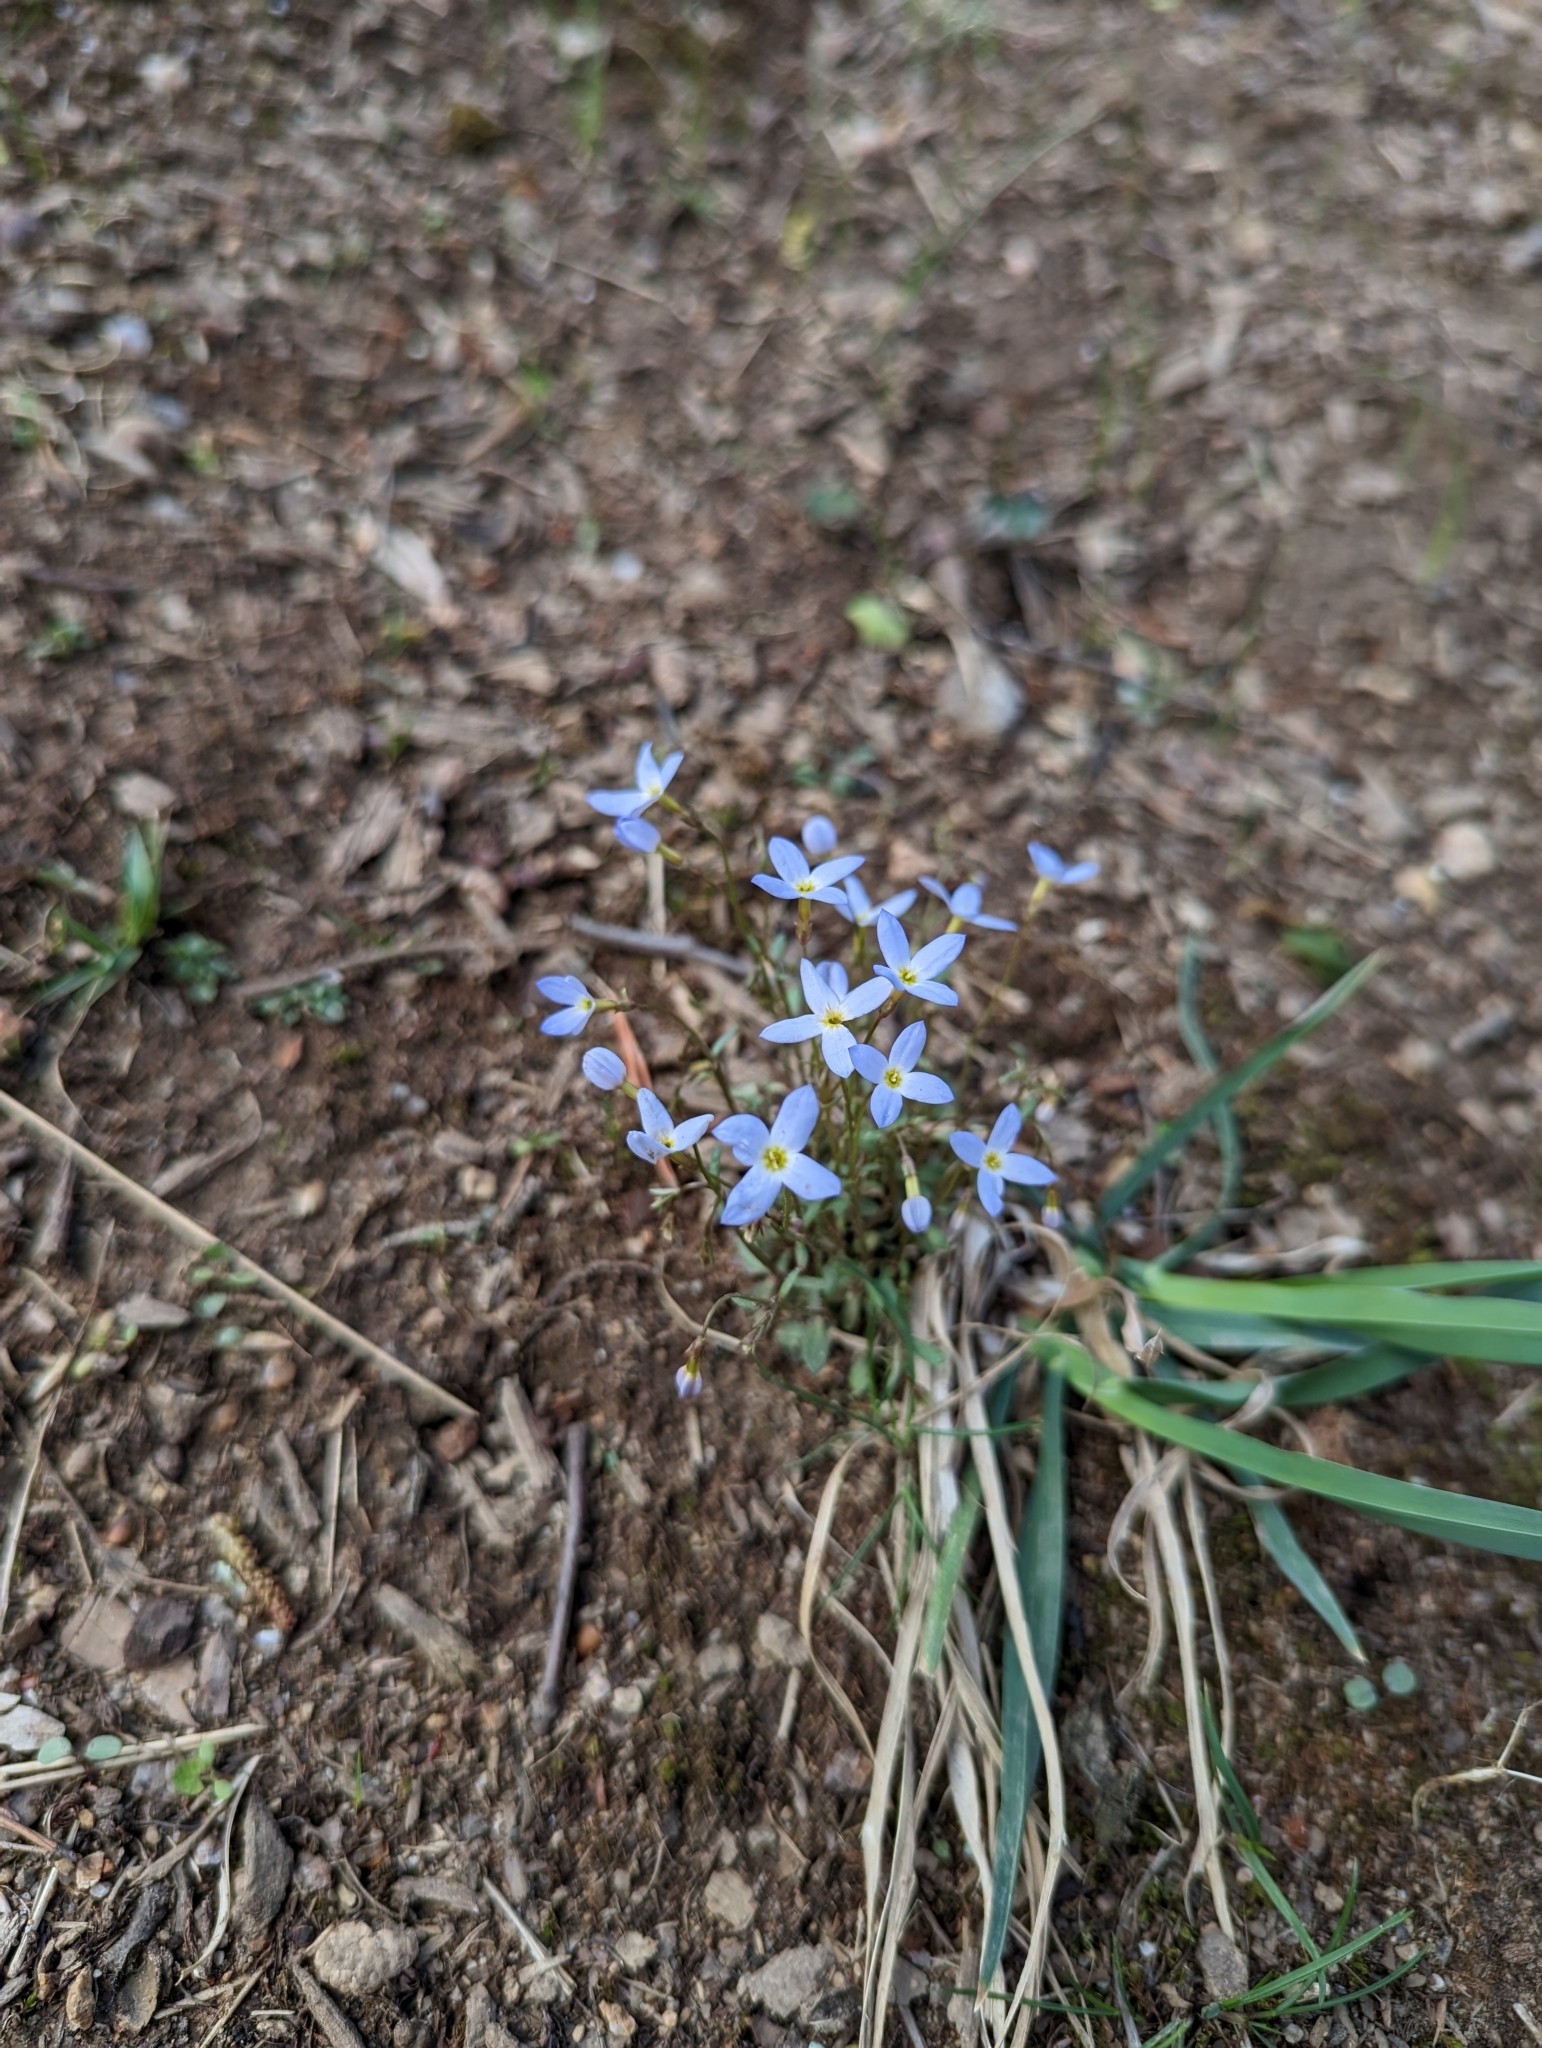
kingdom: Plantae
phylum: Tracheophyta
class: Magnoliopsida
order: Gentianales
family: Rubiaceae
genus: Houstonia
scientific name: Houstonia caerulea
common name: Bluets
